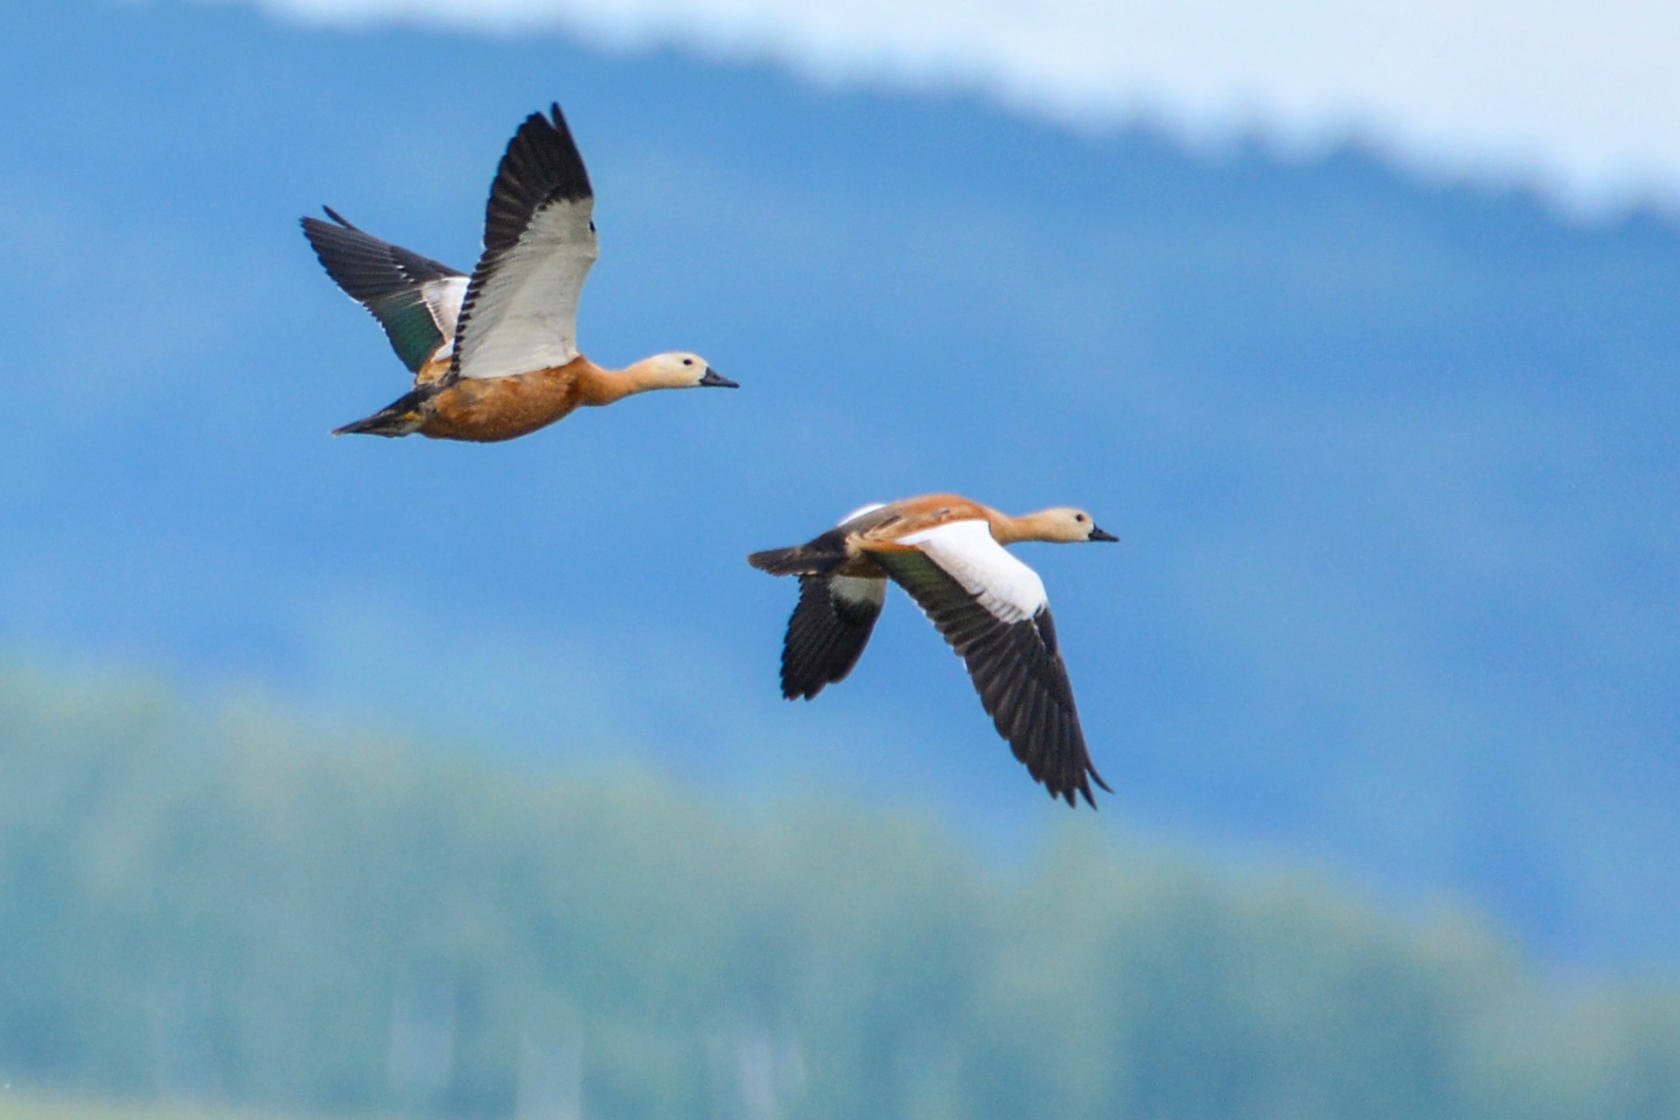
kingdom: Animalia
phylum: Chordata
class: Aves
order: Anseriformes
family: Anatidae
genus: Tadorna
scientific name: Tadorna ferruginea
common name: Ruddy shelduck
